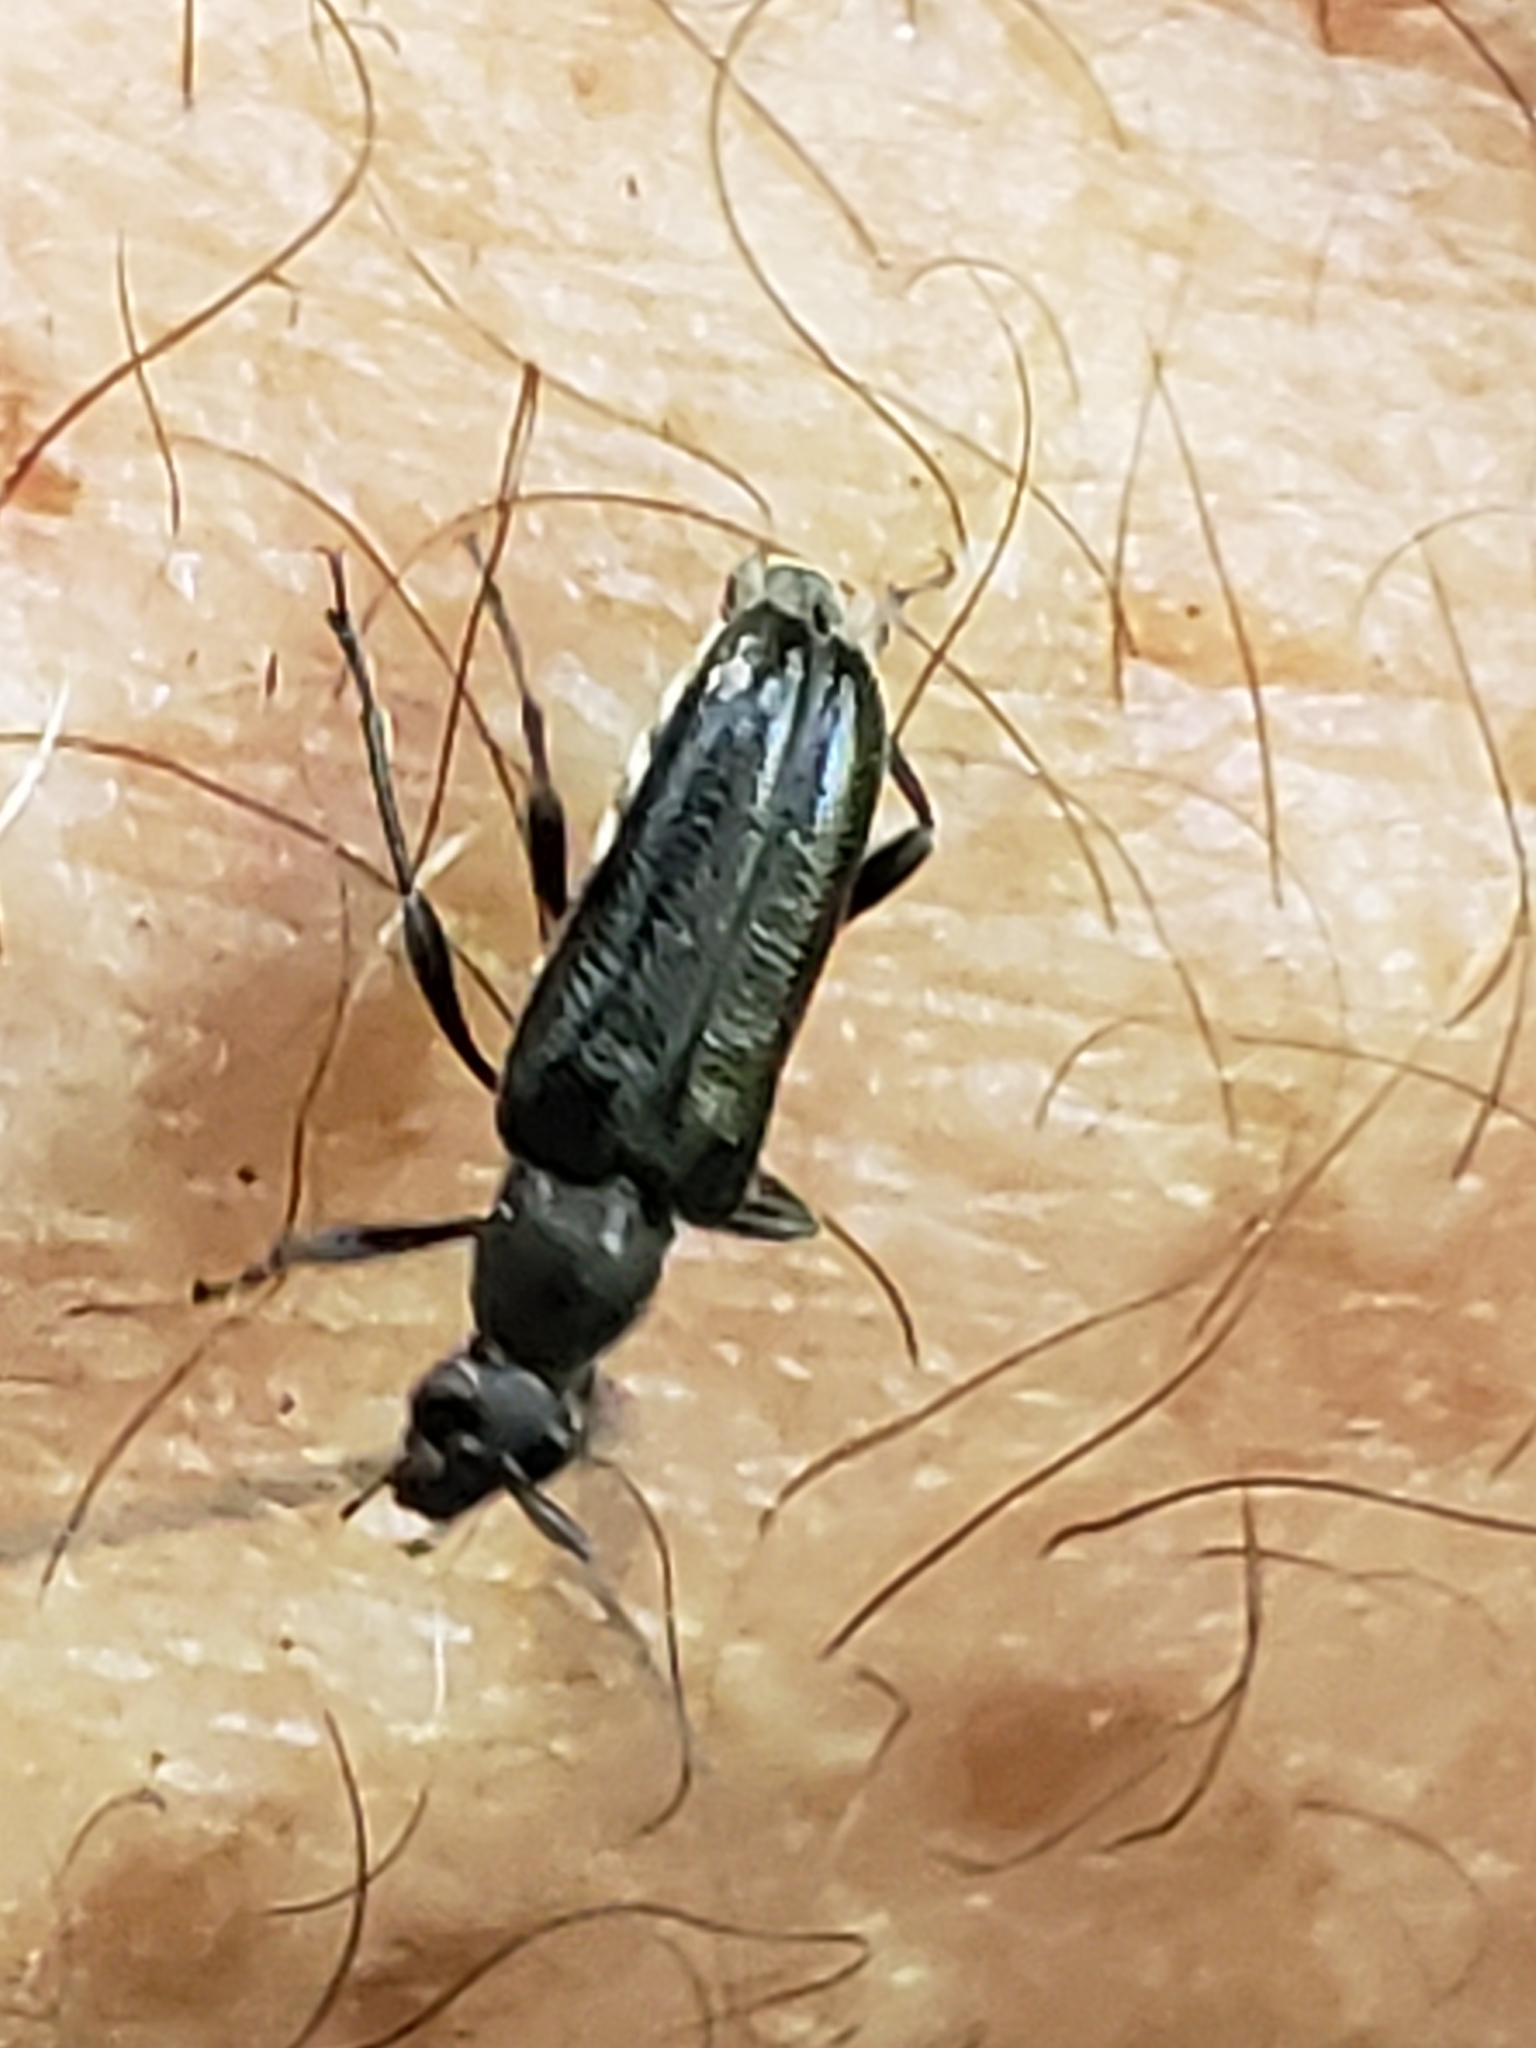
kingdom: Animalia
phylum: Arthropoda
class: Insecta
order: Coleoptera
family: Cerambycidae
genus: Grammoptera
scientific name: Grammoptera haematites
